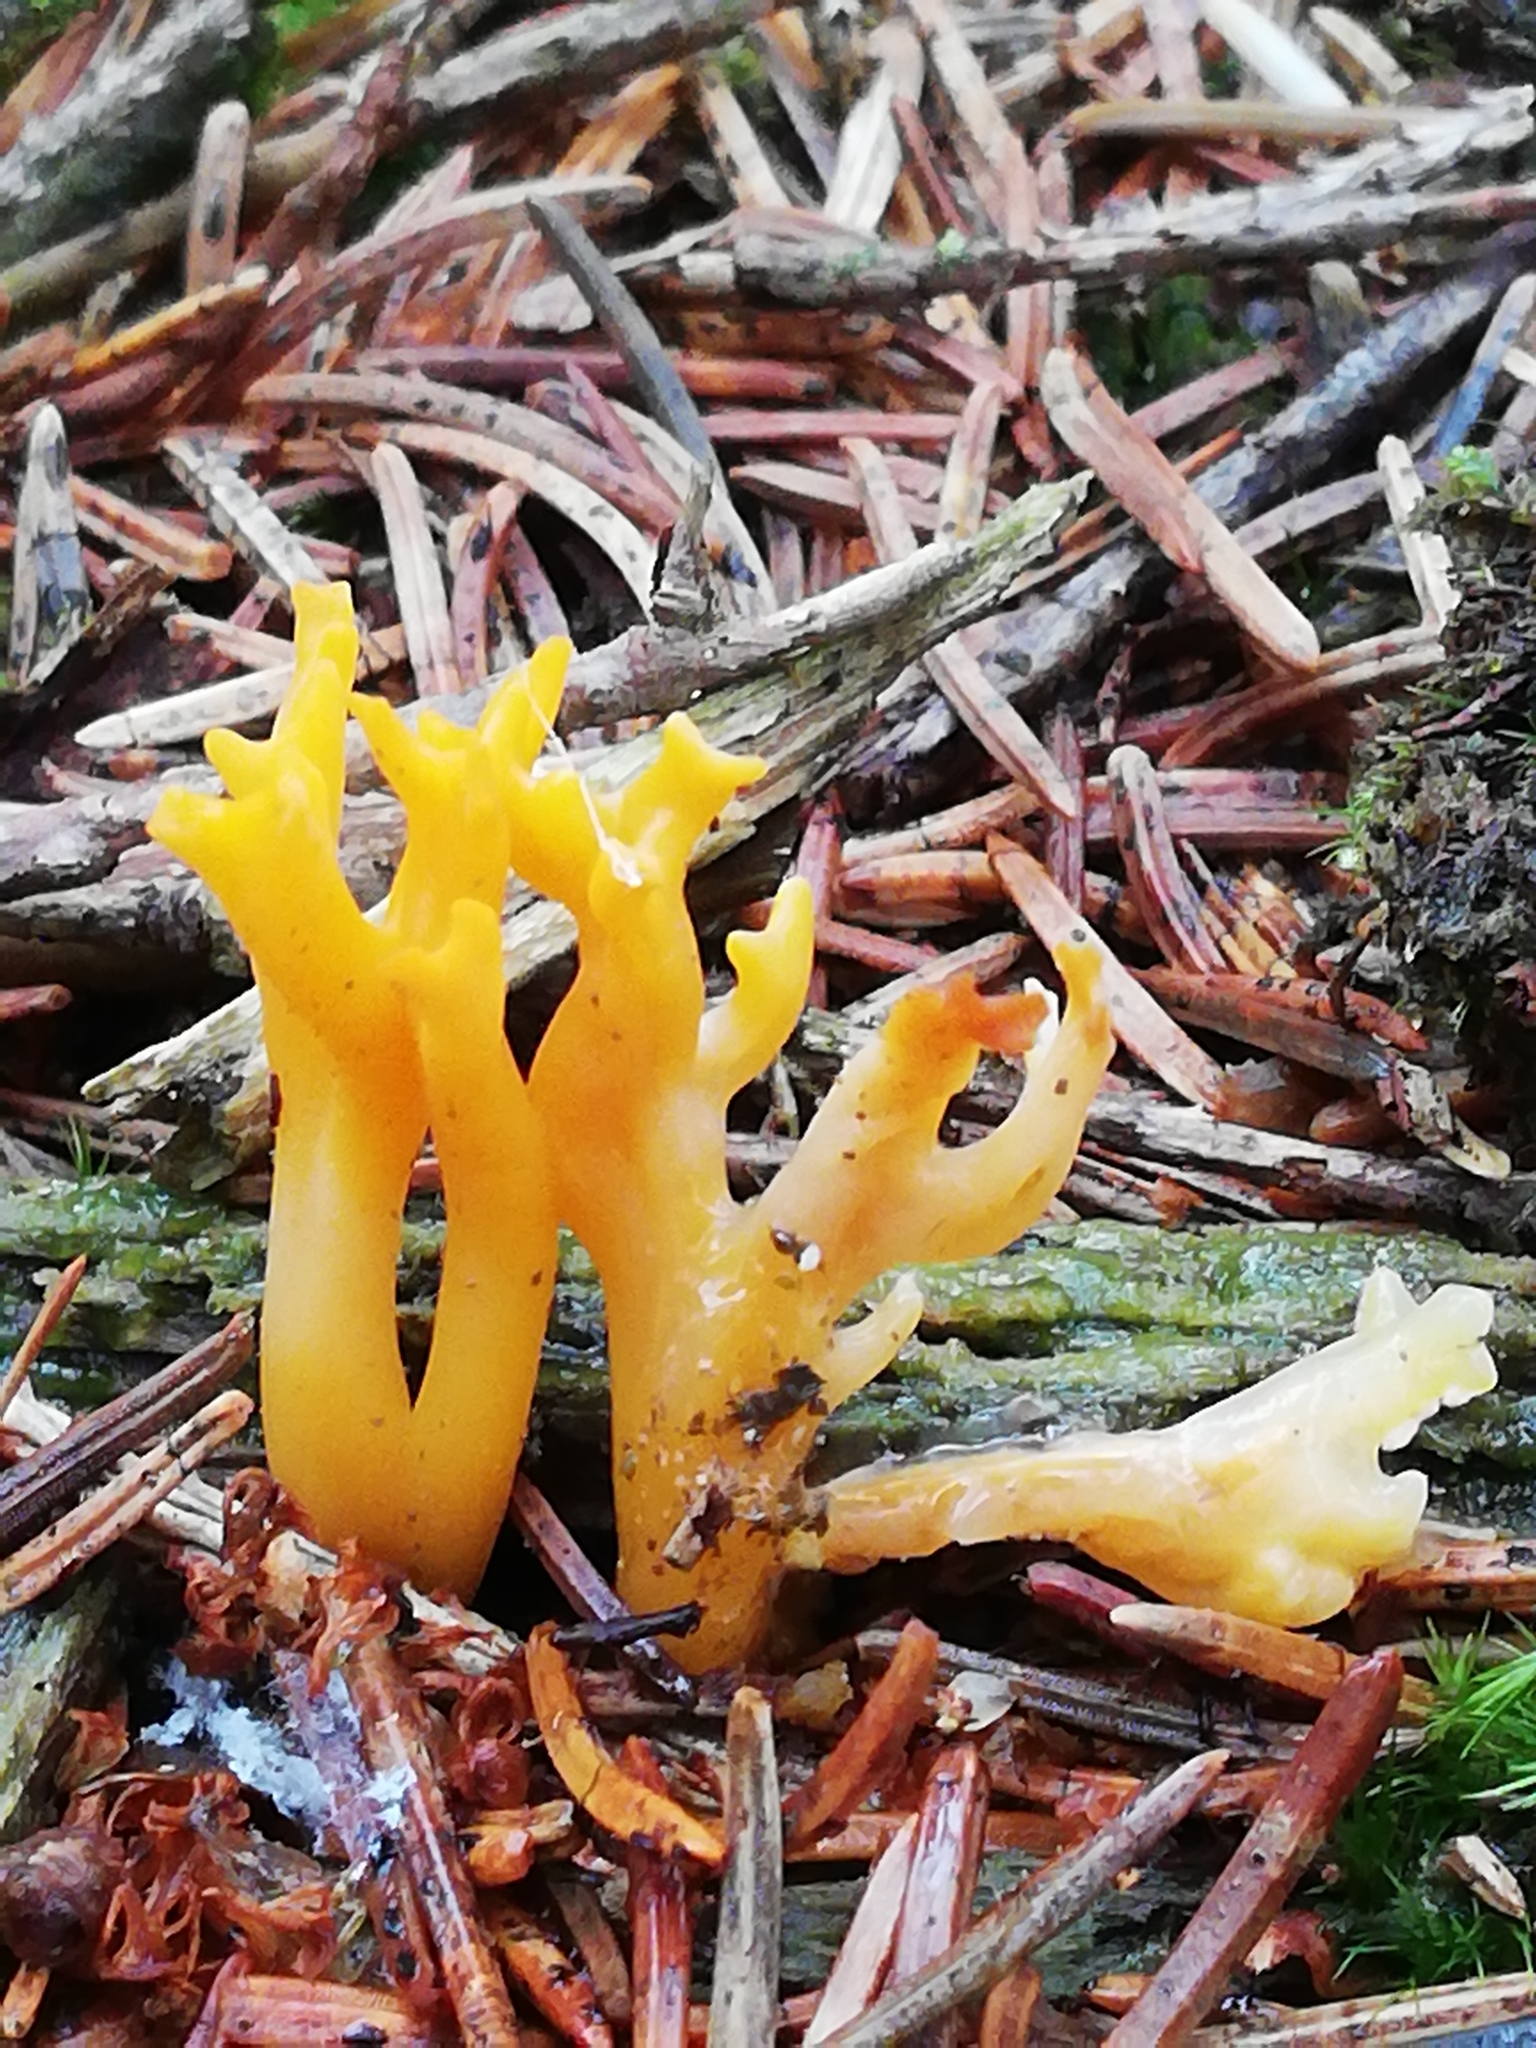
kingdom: Fungi
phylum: Basidiomycota
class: Dacrymycetes
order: Dacrymycetales
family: Dacrymycetaceae
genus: Calocera
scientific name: Calocera viscosa
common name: Yellow stagshorn
